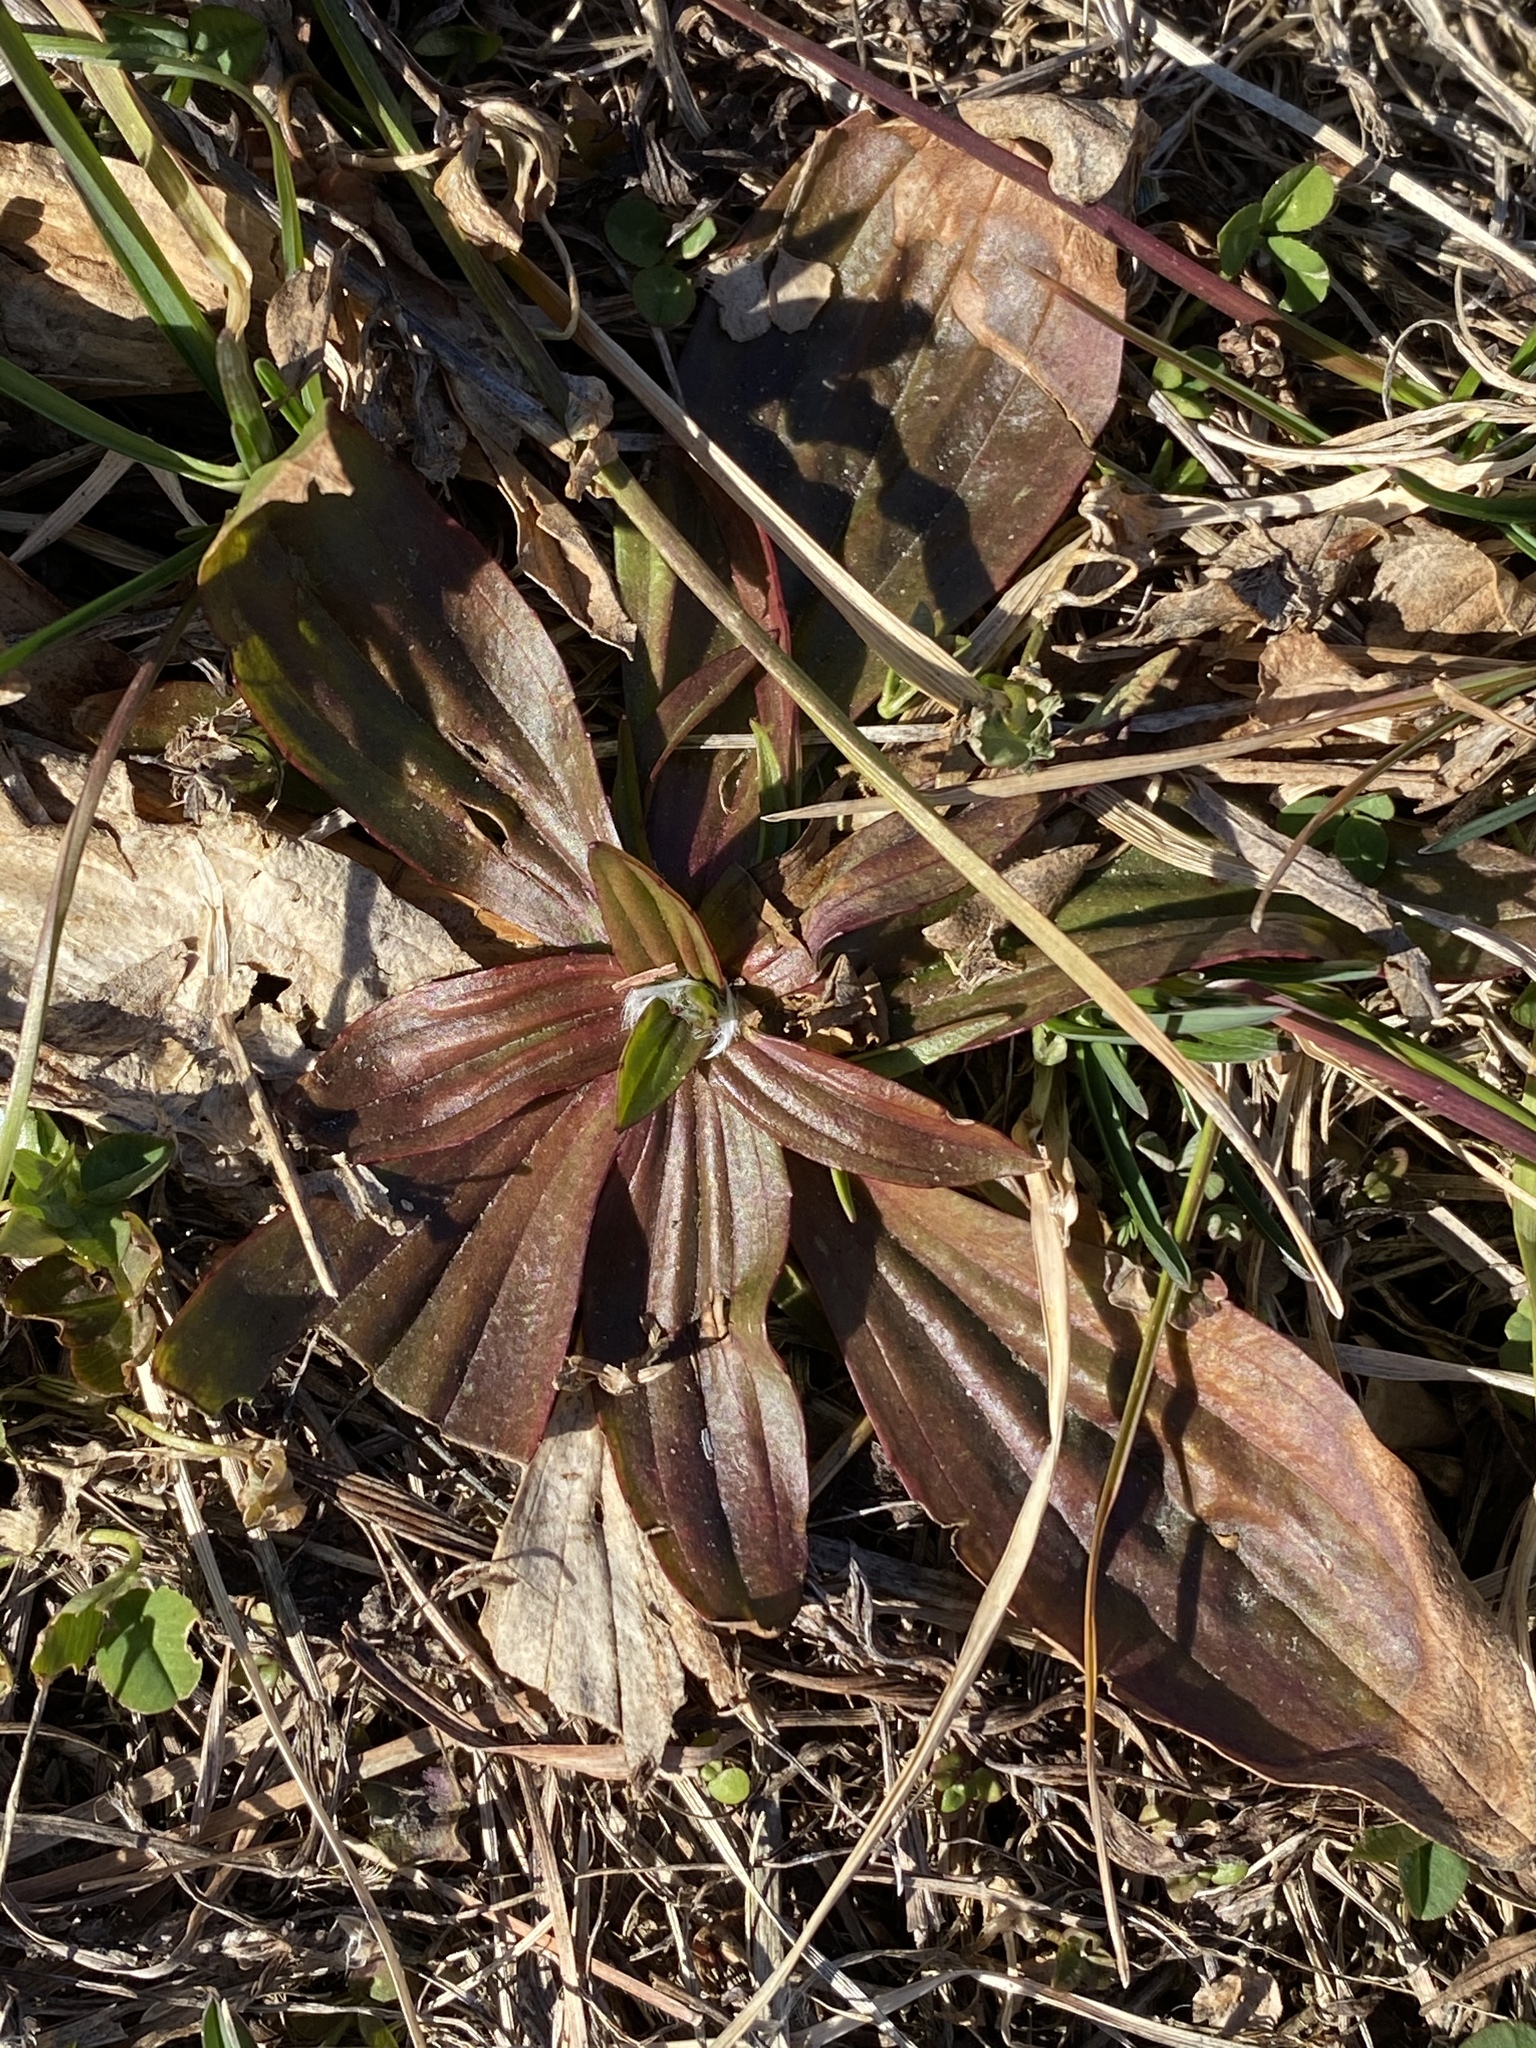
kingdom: Plantae
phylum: Tracheophyta
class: Magnoliopsida
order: Lamiales
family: Plantaginaceae
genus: Plantago
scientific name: Plantago lanceolata
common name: Ribwort plantain
